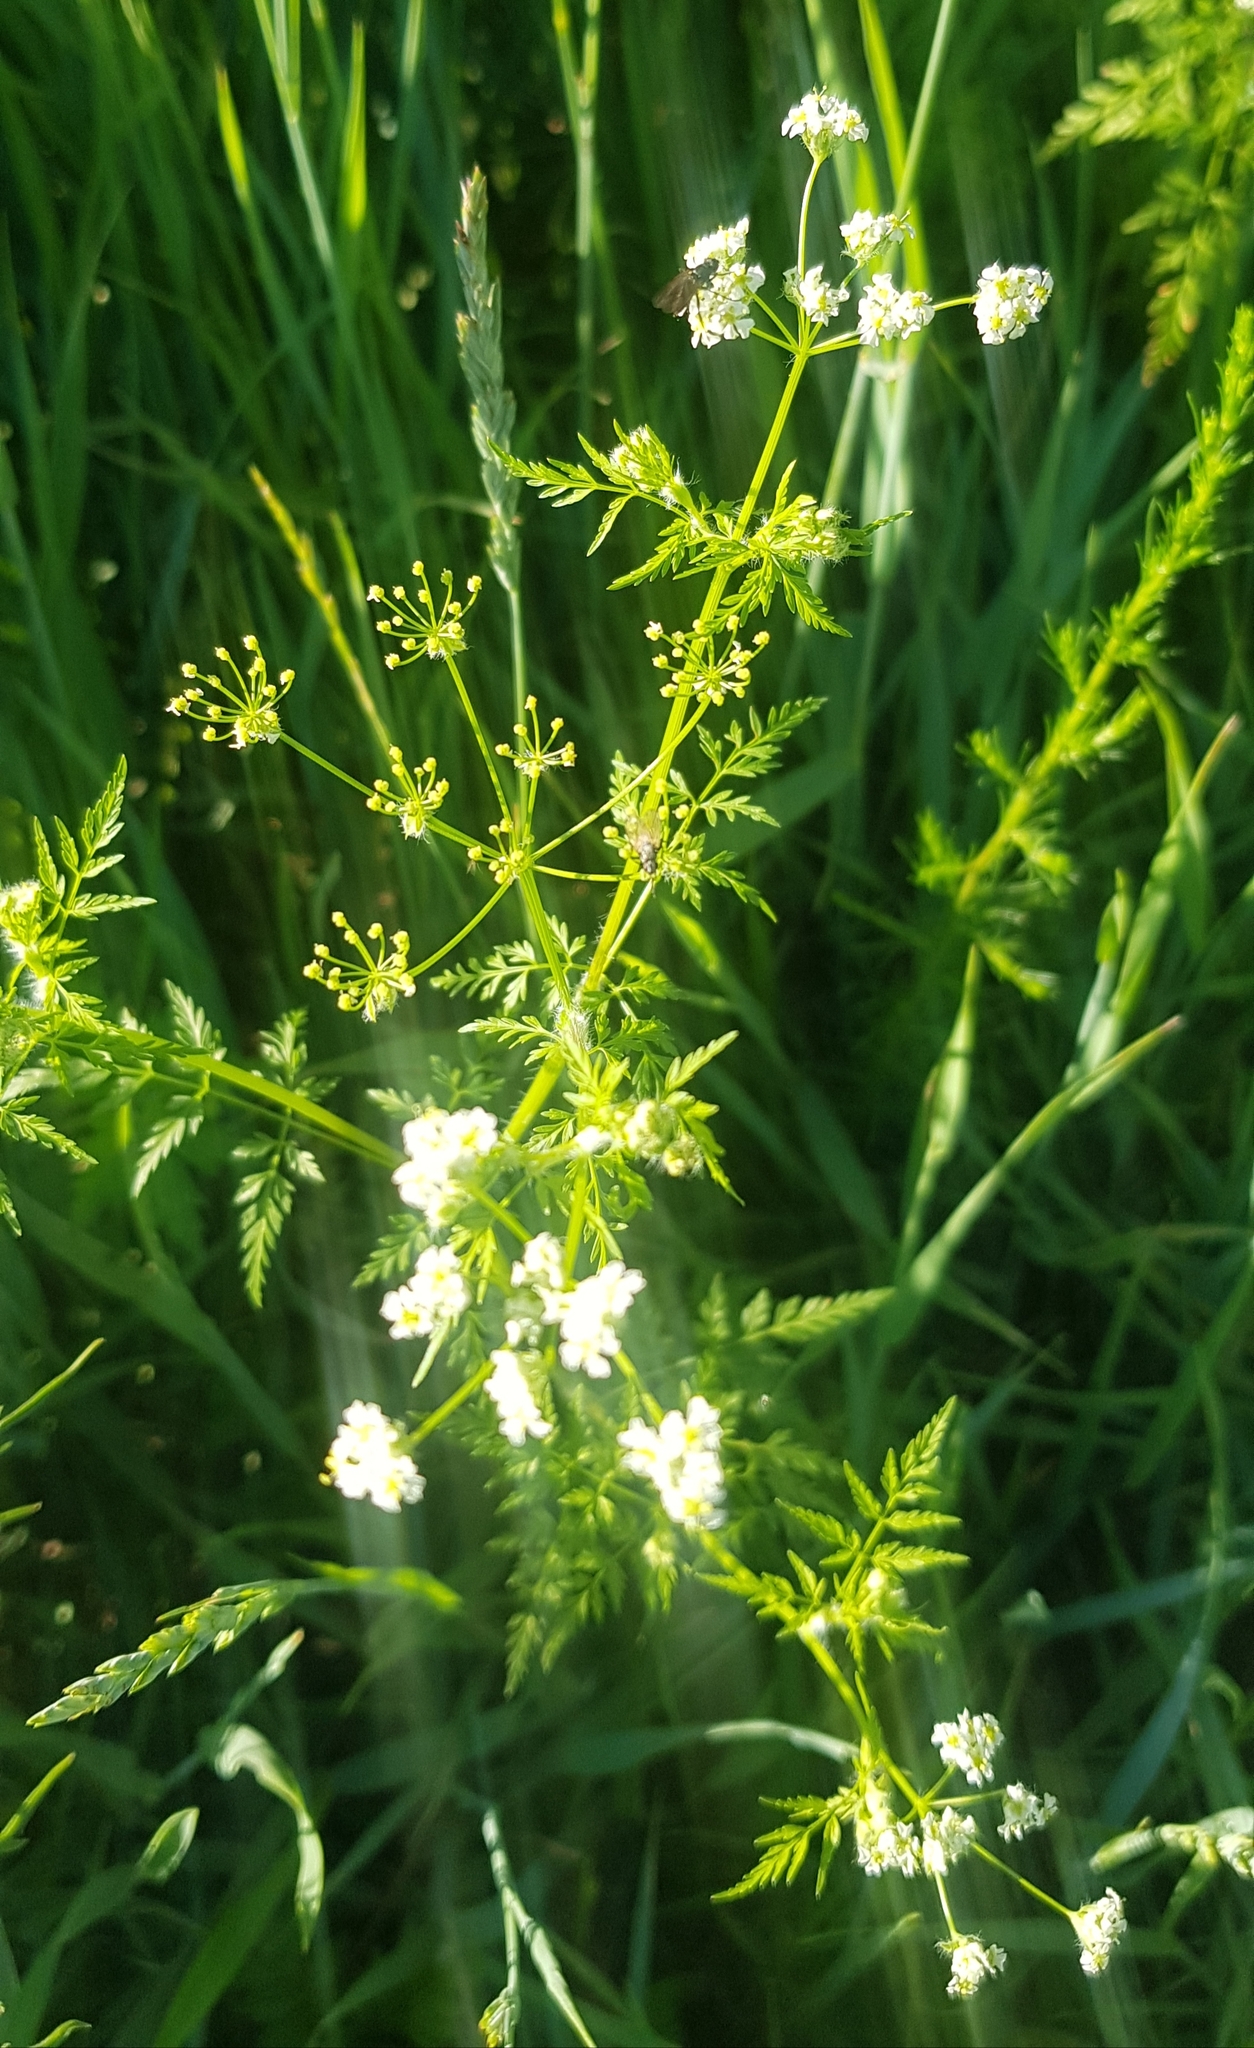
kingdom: Plantae
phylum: Tracheophyta
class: Magnoliopsida
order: Apiales
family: Apiaceae
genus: Sphallerocarpus
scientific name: Sphallerocarpus gracilis
